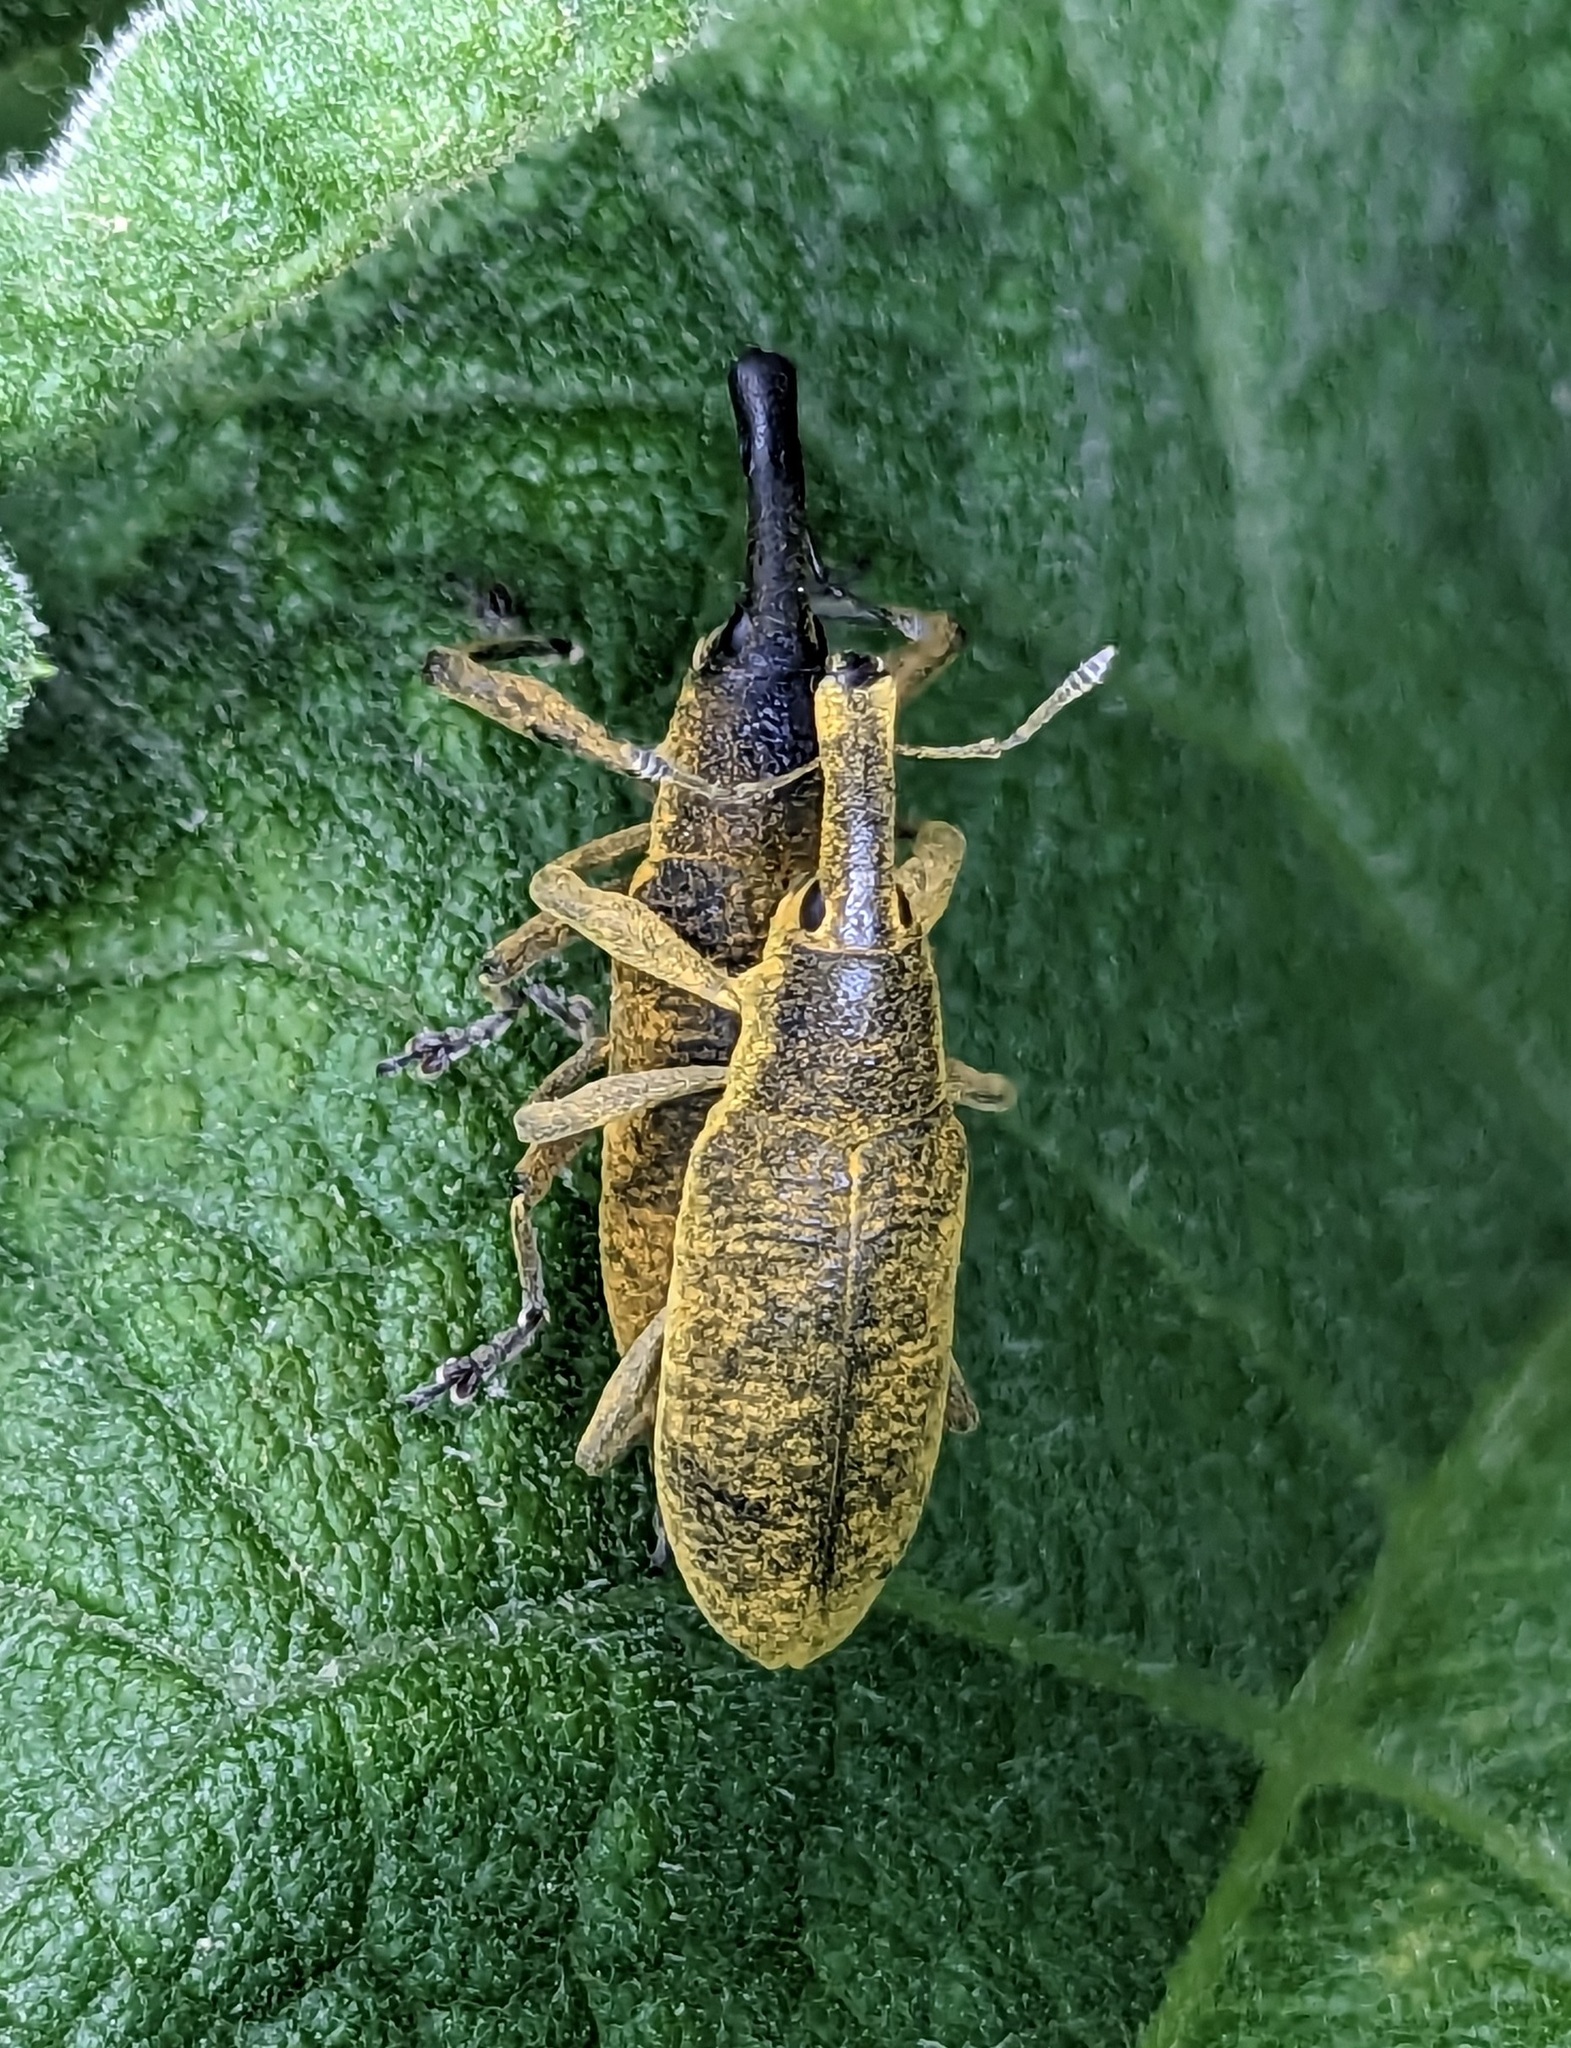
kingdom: Animalia
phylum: Arthropoda
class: Insecta
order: Coleoptera
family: Curculionidae
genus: Lixus
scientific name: Lixus pulverulentus
